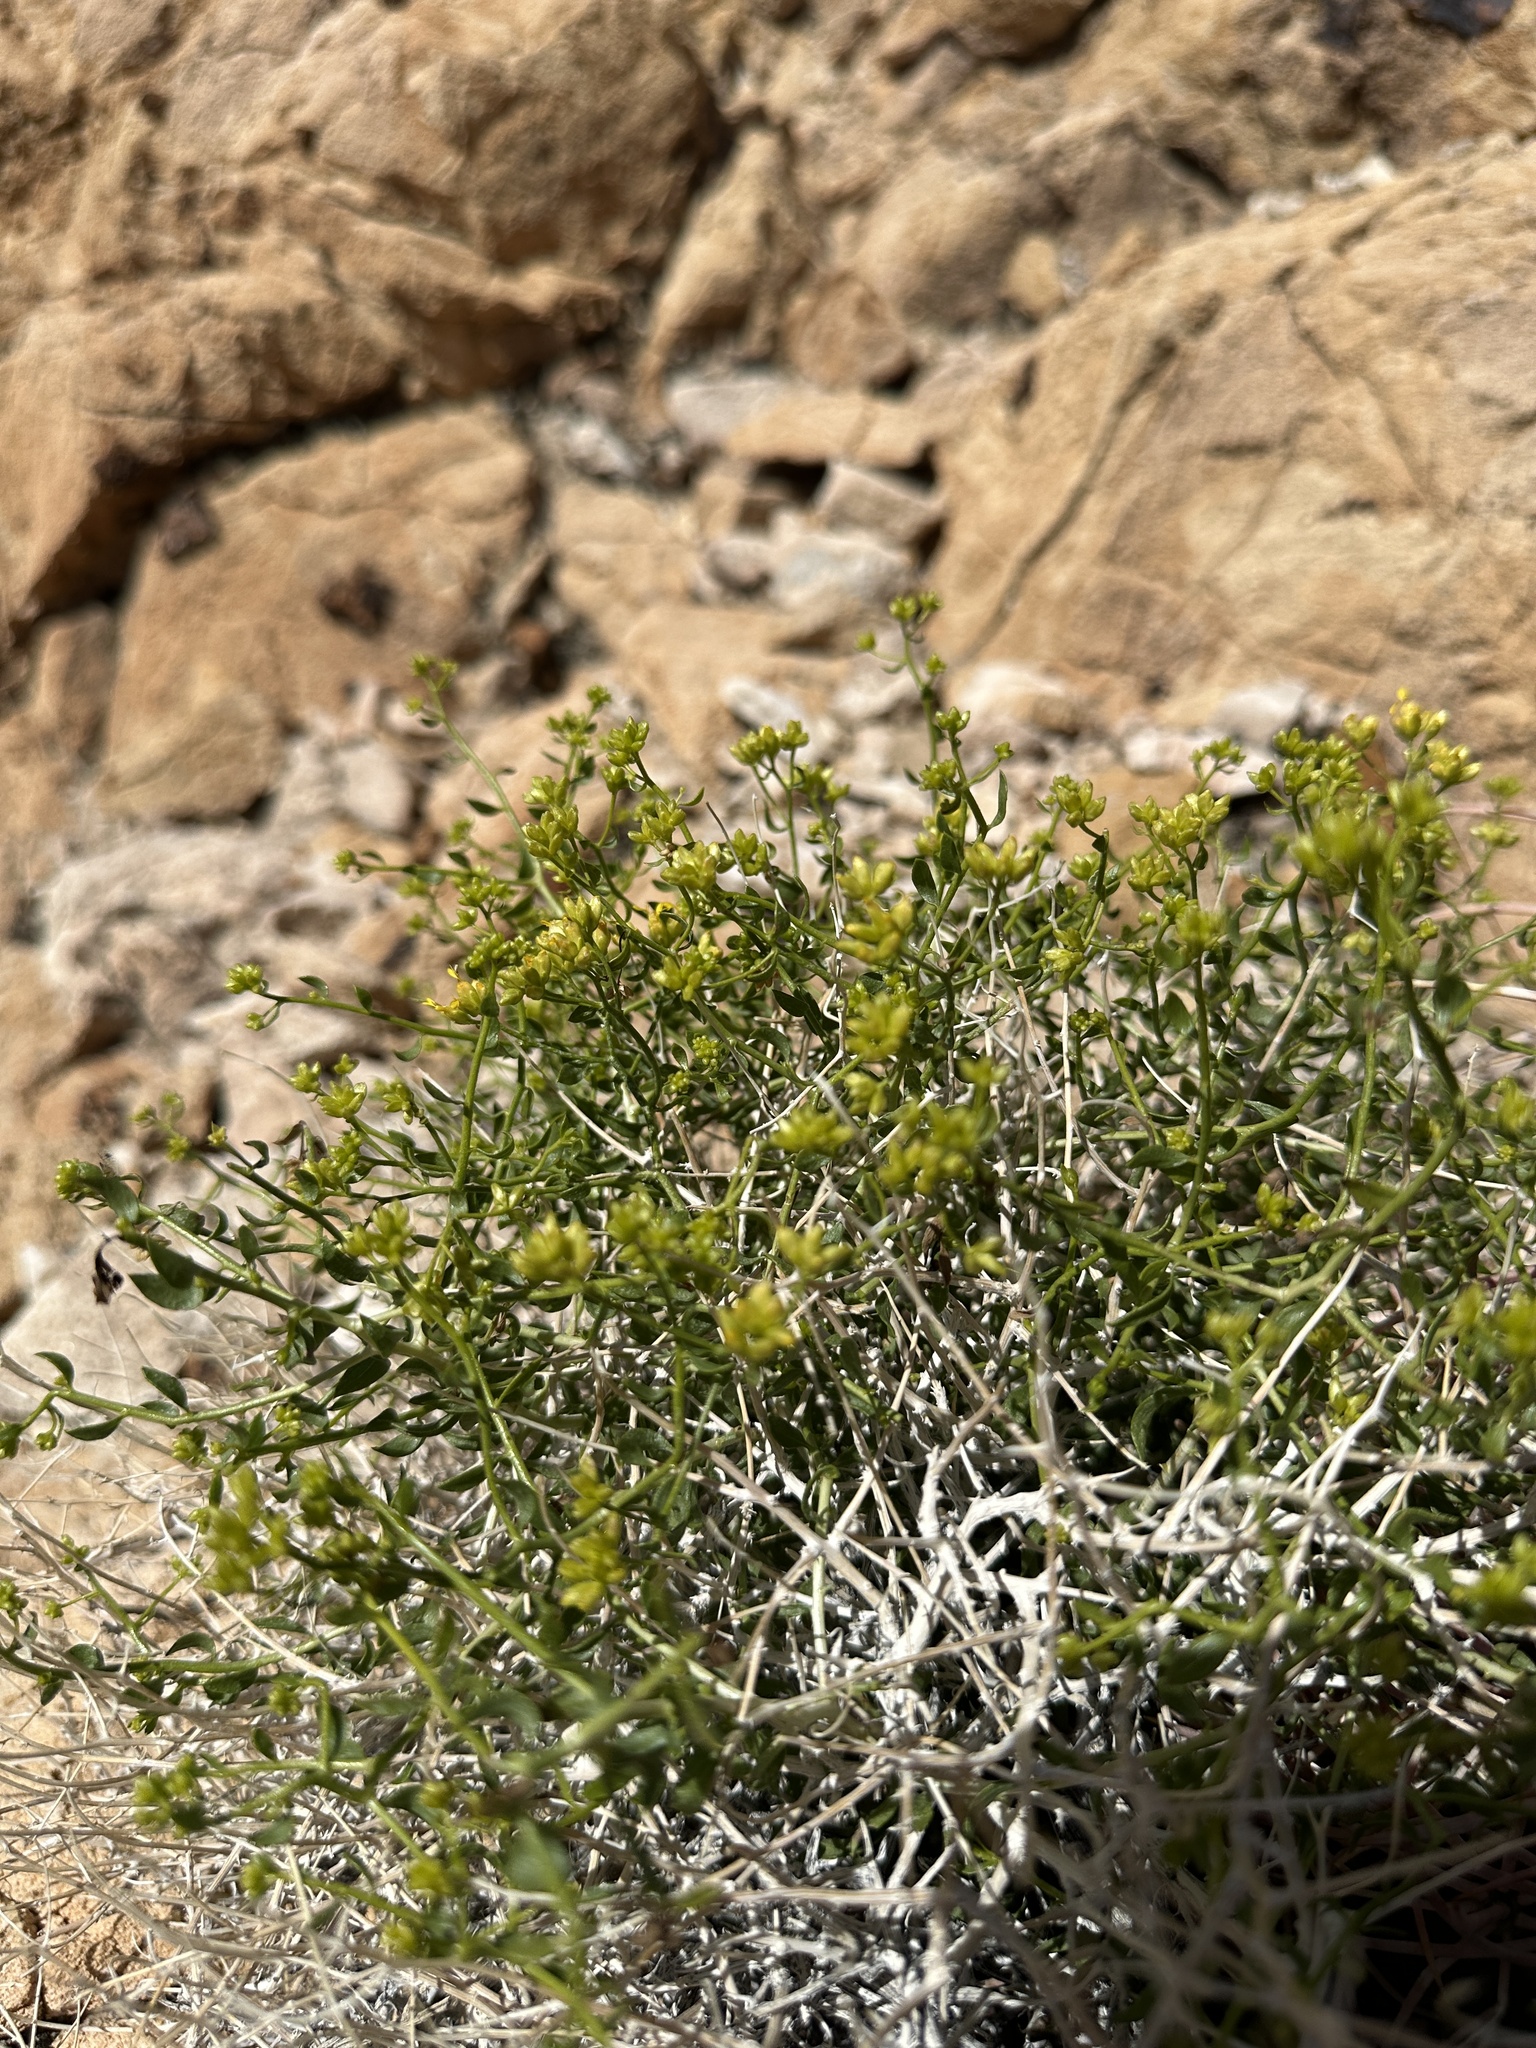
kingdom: Plantae
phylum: Tracheophyta
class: Magnoliopsida
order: Asterales
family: Asteraceae
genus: Amphipappus
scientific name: Amphipappus fremontii
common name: Fremont's chaffbush
